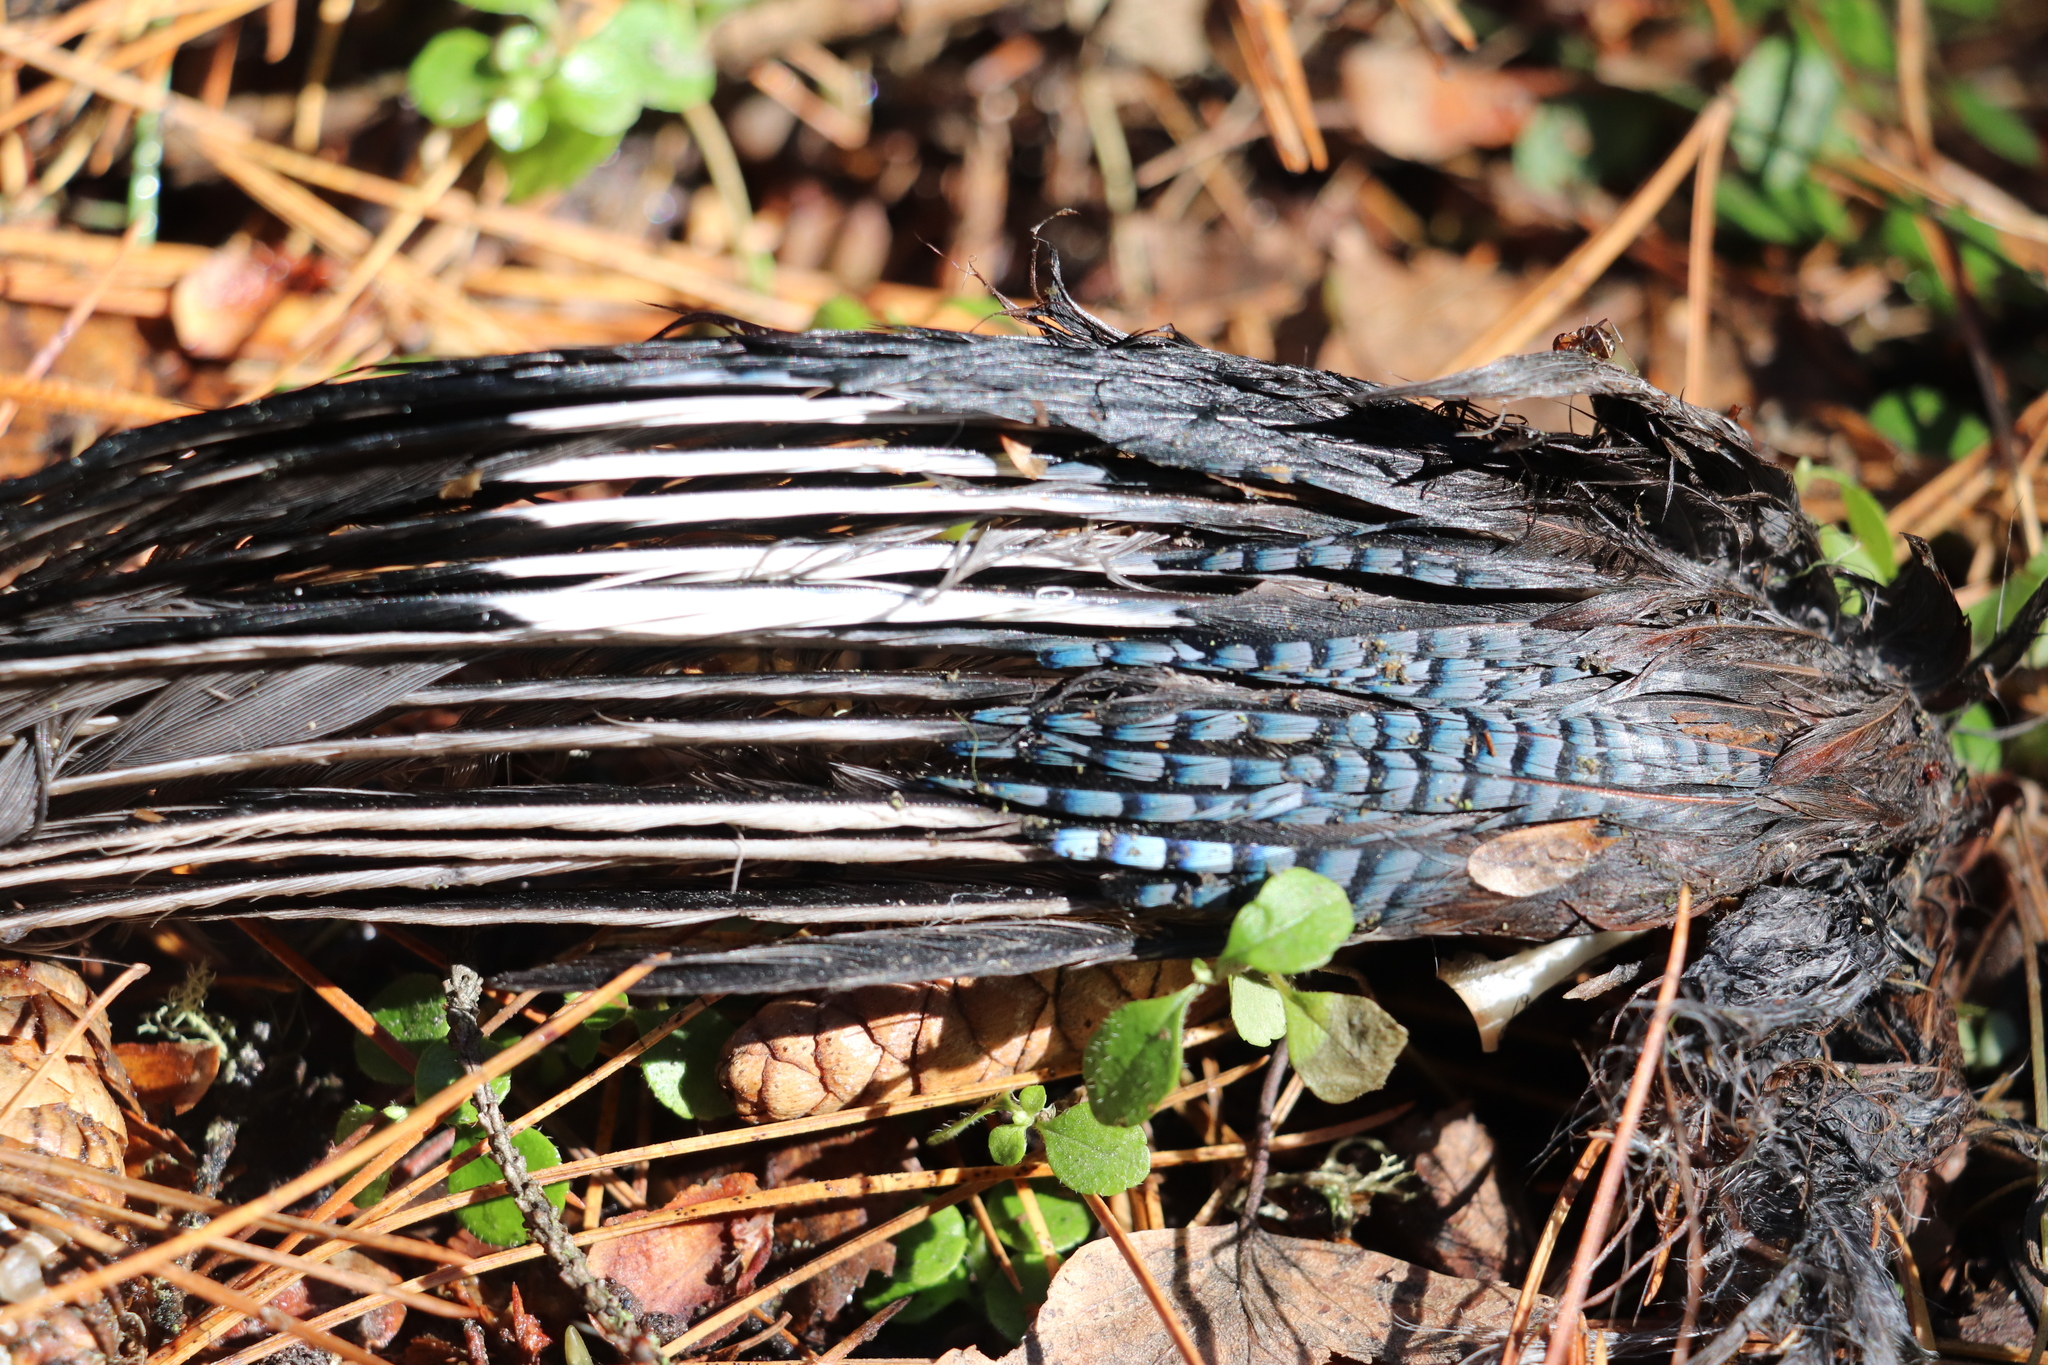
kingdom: Animalia
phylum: Chordata
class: Aves
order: Passeriformes
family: Corvidae
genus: Garrulus
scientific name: Garrulus glandarius
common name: Eurasian jay
